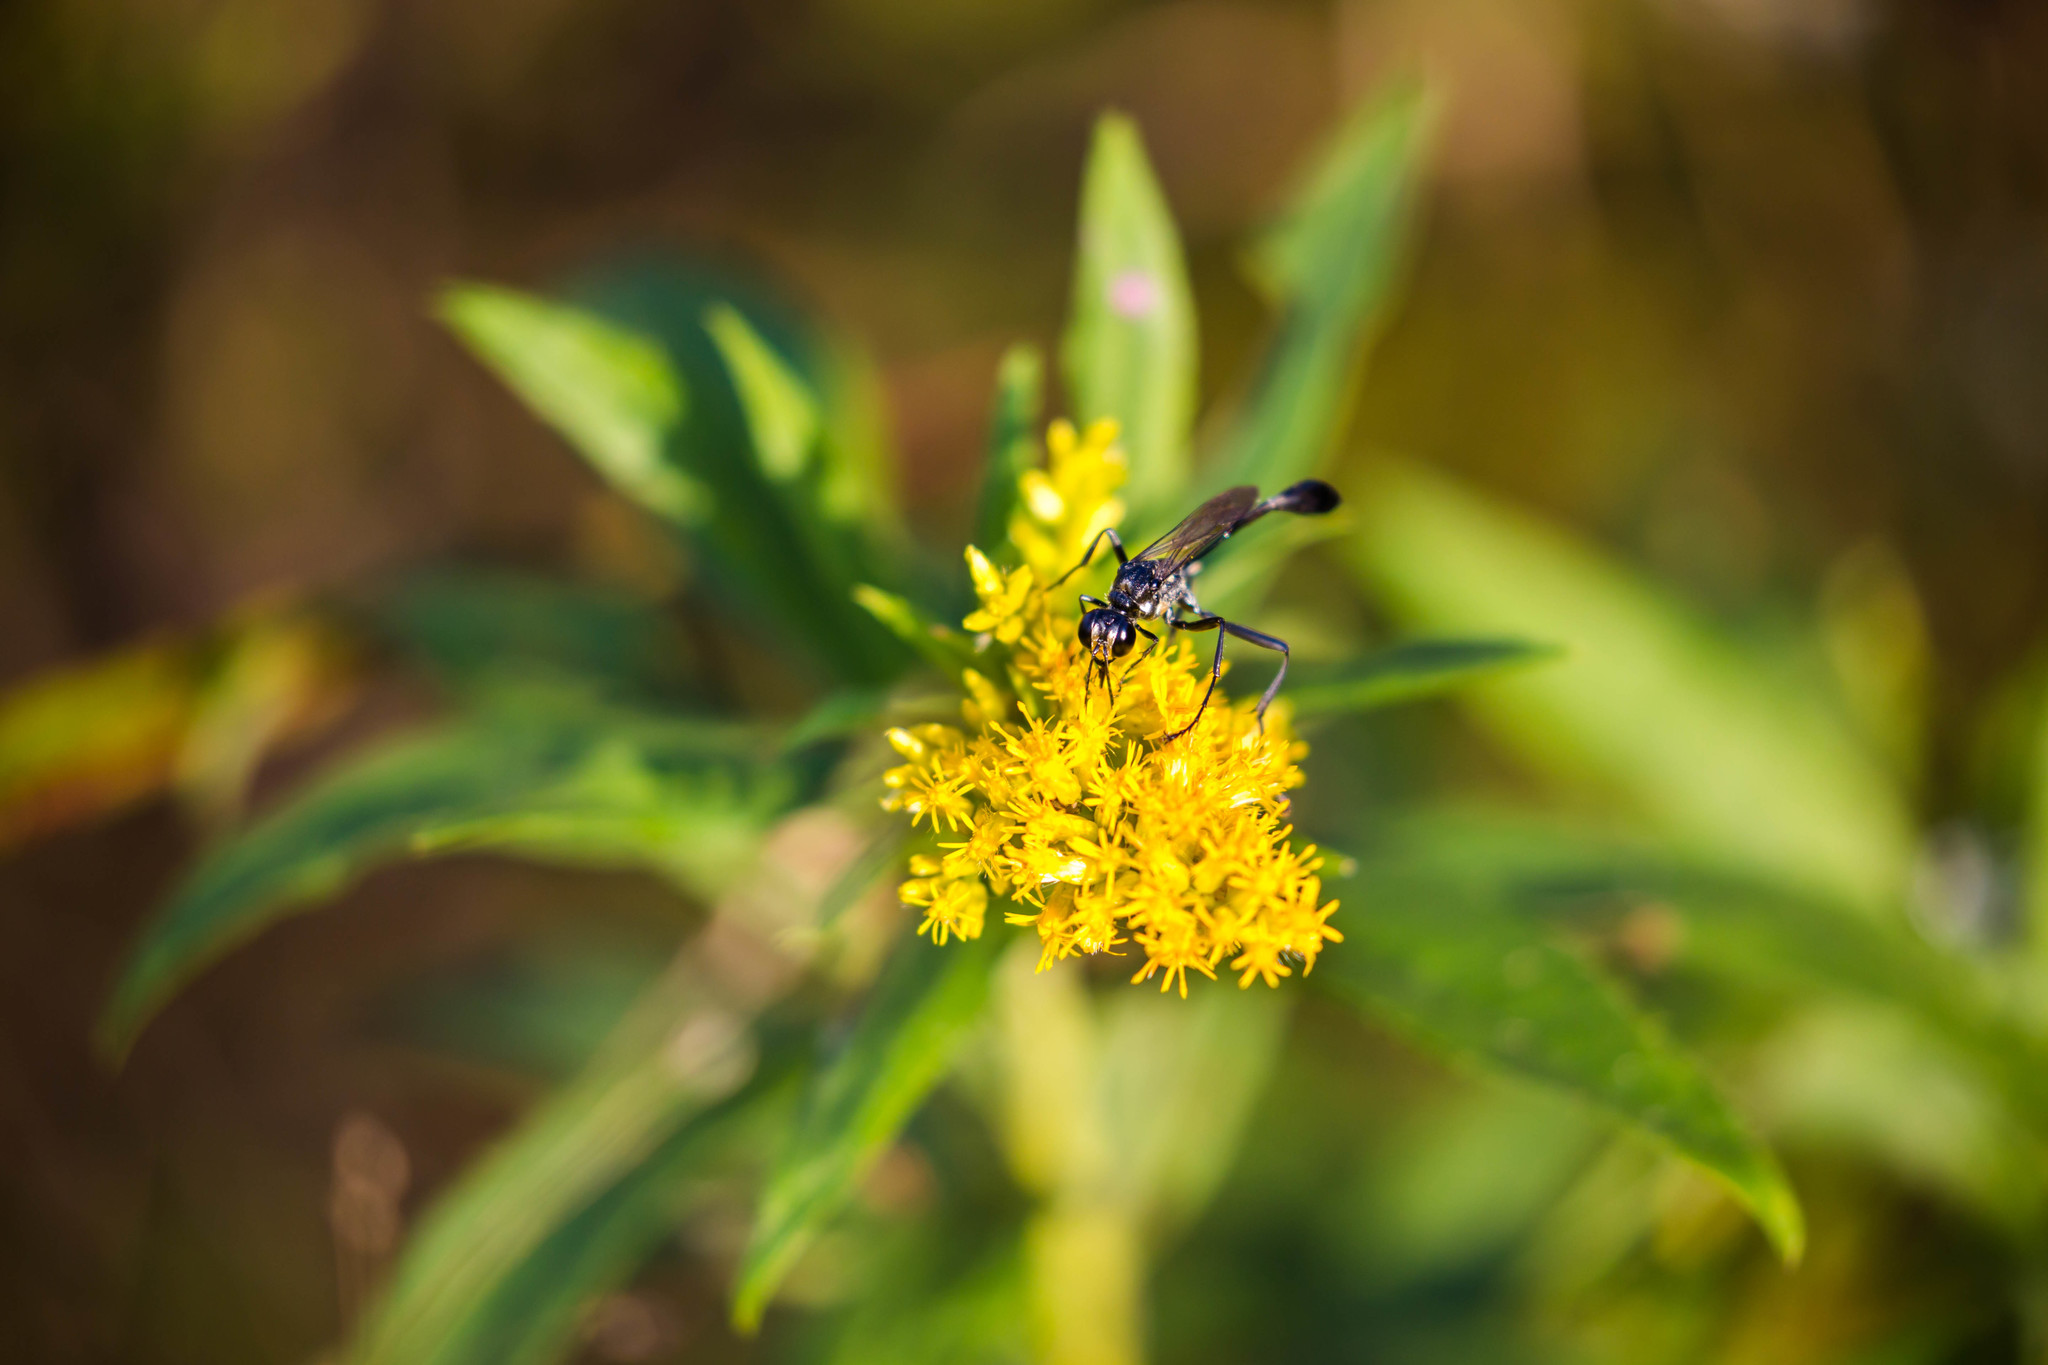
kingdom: Animalia
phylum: Arthropoda
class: Insecta
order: Hymenoptera
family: Sphecidae
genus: Eremnophila
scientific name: Eremnophila aureonotata
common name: Gold-marked thread-waisted wasp
